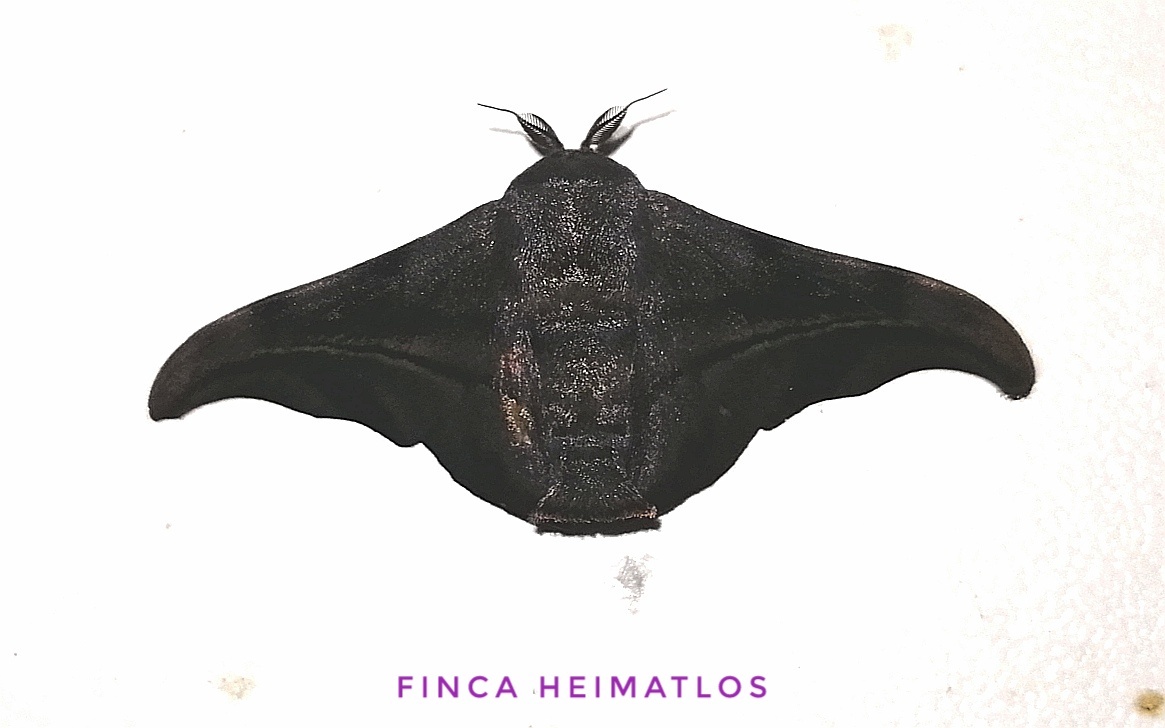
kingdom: Animalia
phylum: Arthropoda
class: Insecta
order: Lepidoptera
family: Mimallonidae
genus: Thaelia
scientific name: Thaelia subrubiginosa
